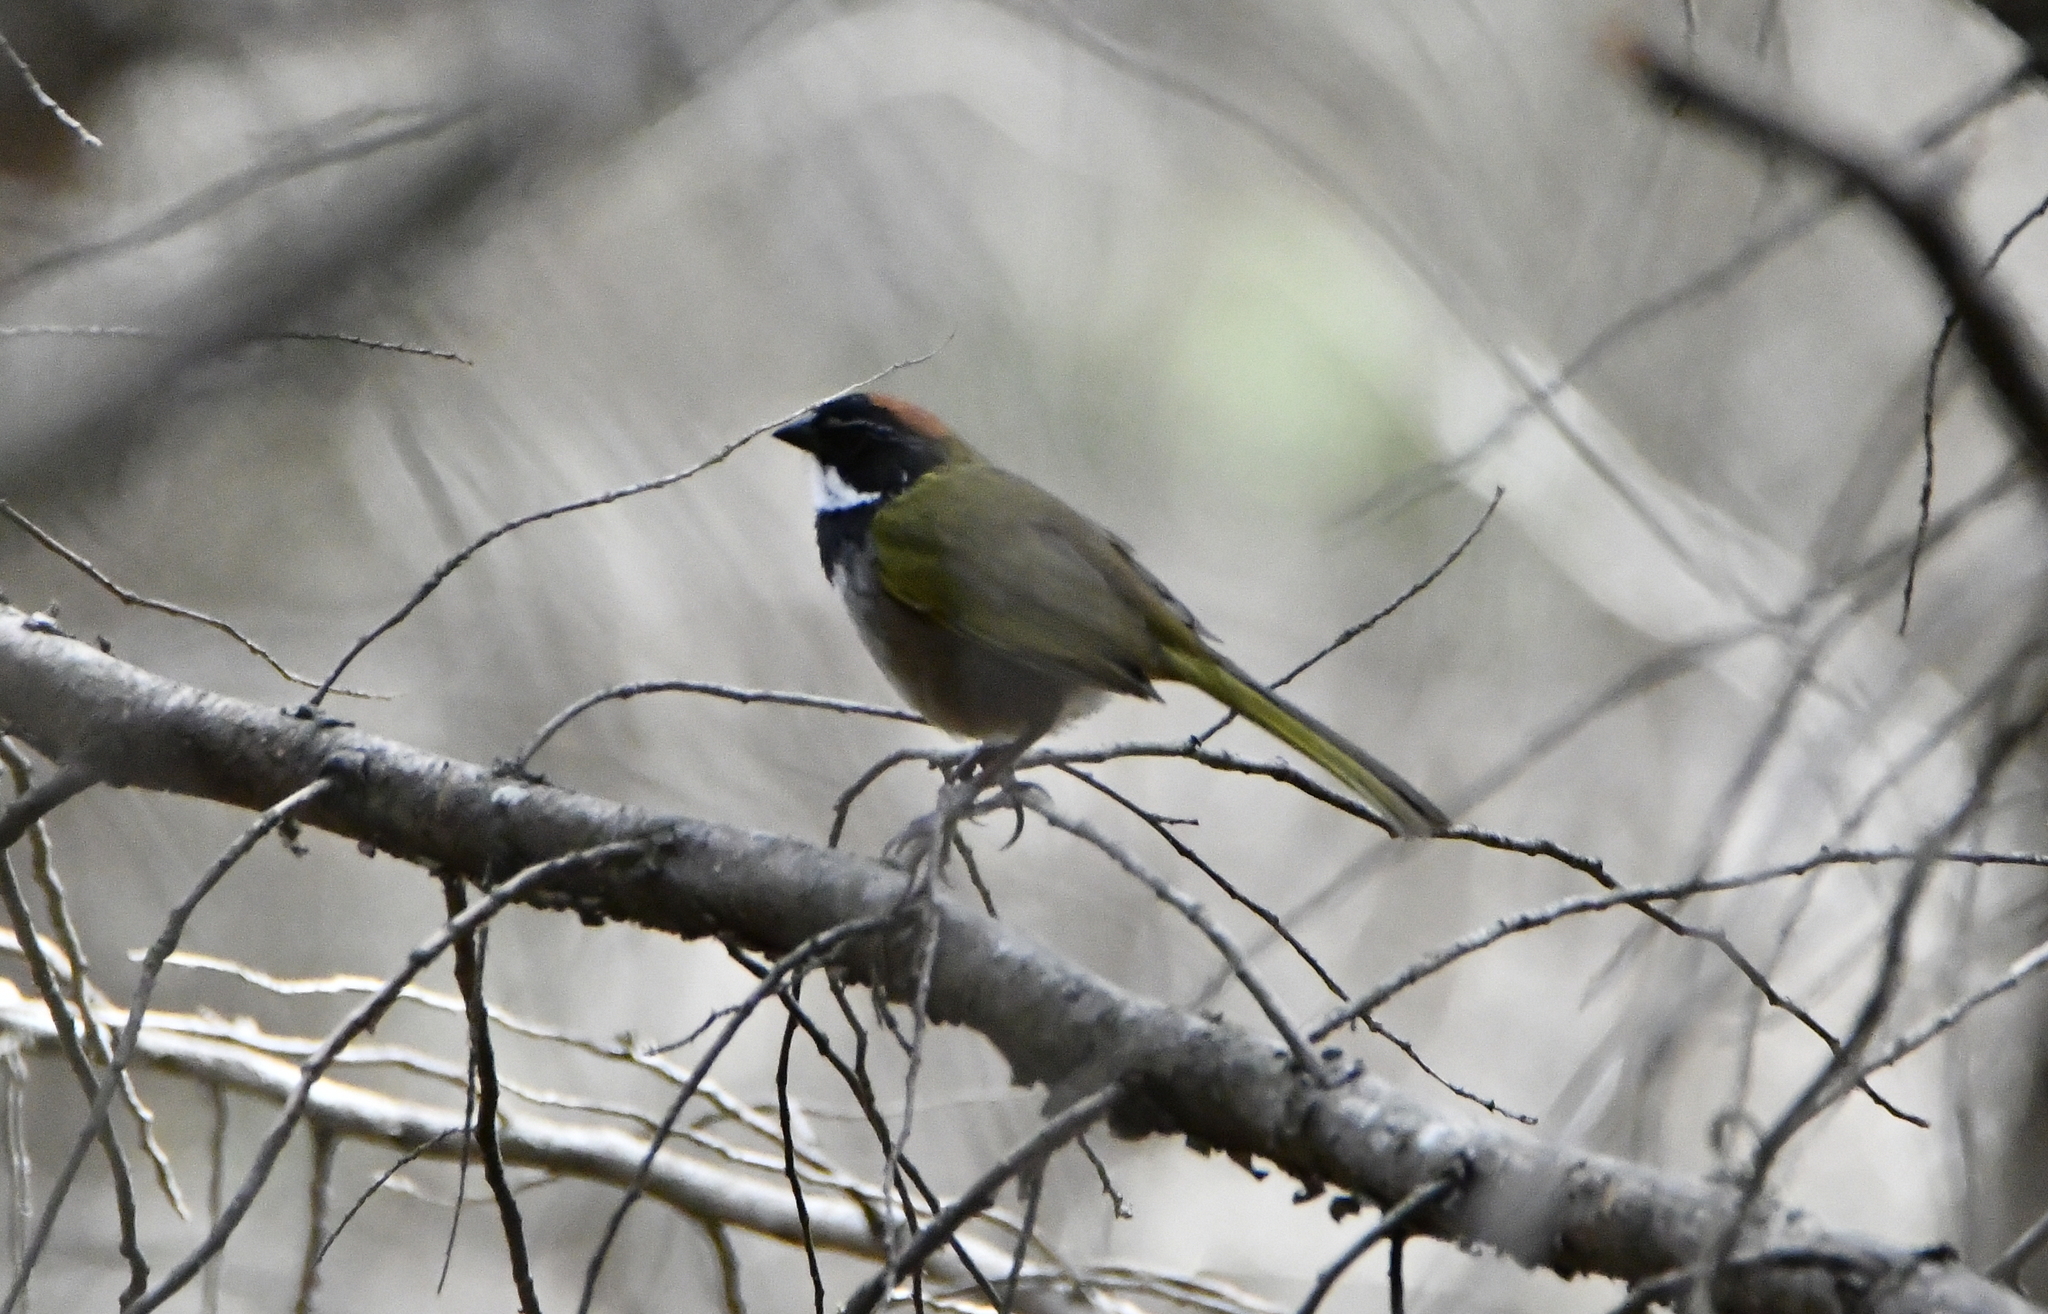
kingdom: Animalia
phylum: Chordata
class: Aves
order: Passeriformes
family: Passerellidae
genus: Pipilo
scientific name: Pipilo ocai
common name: Collared towhee
